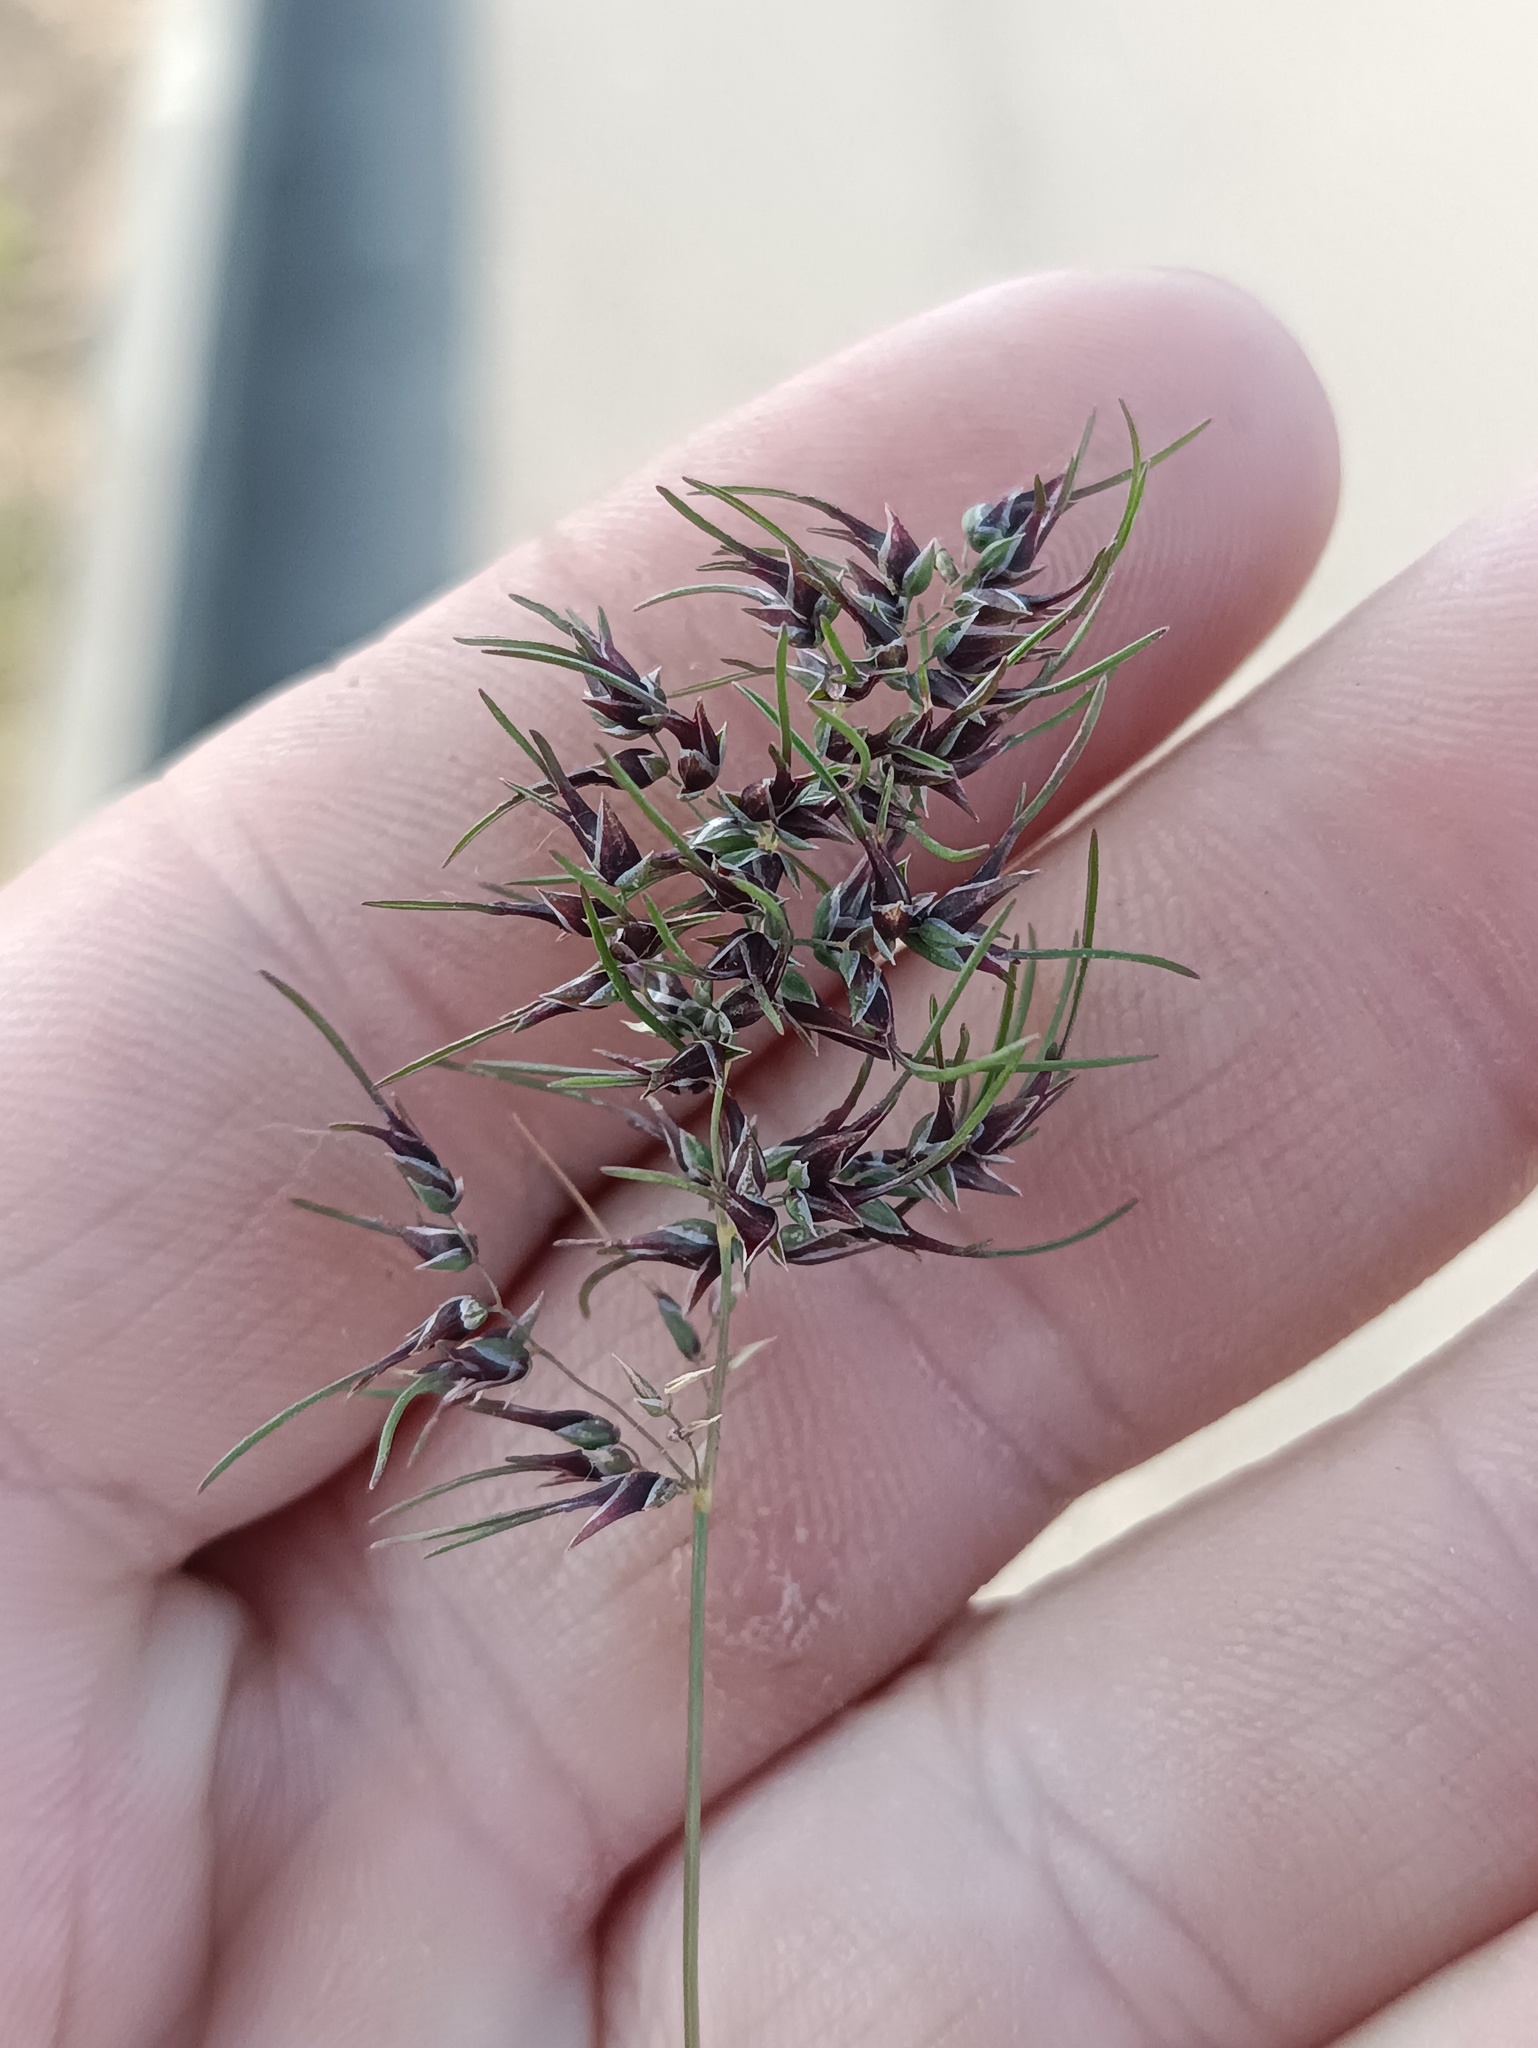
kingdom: Plantae
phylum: Tracheophyta
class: Liliopsida
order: Poales
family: Poaceae
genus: Poa
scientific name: Poa bulbosa
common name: Bulbous bluegrass
